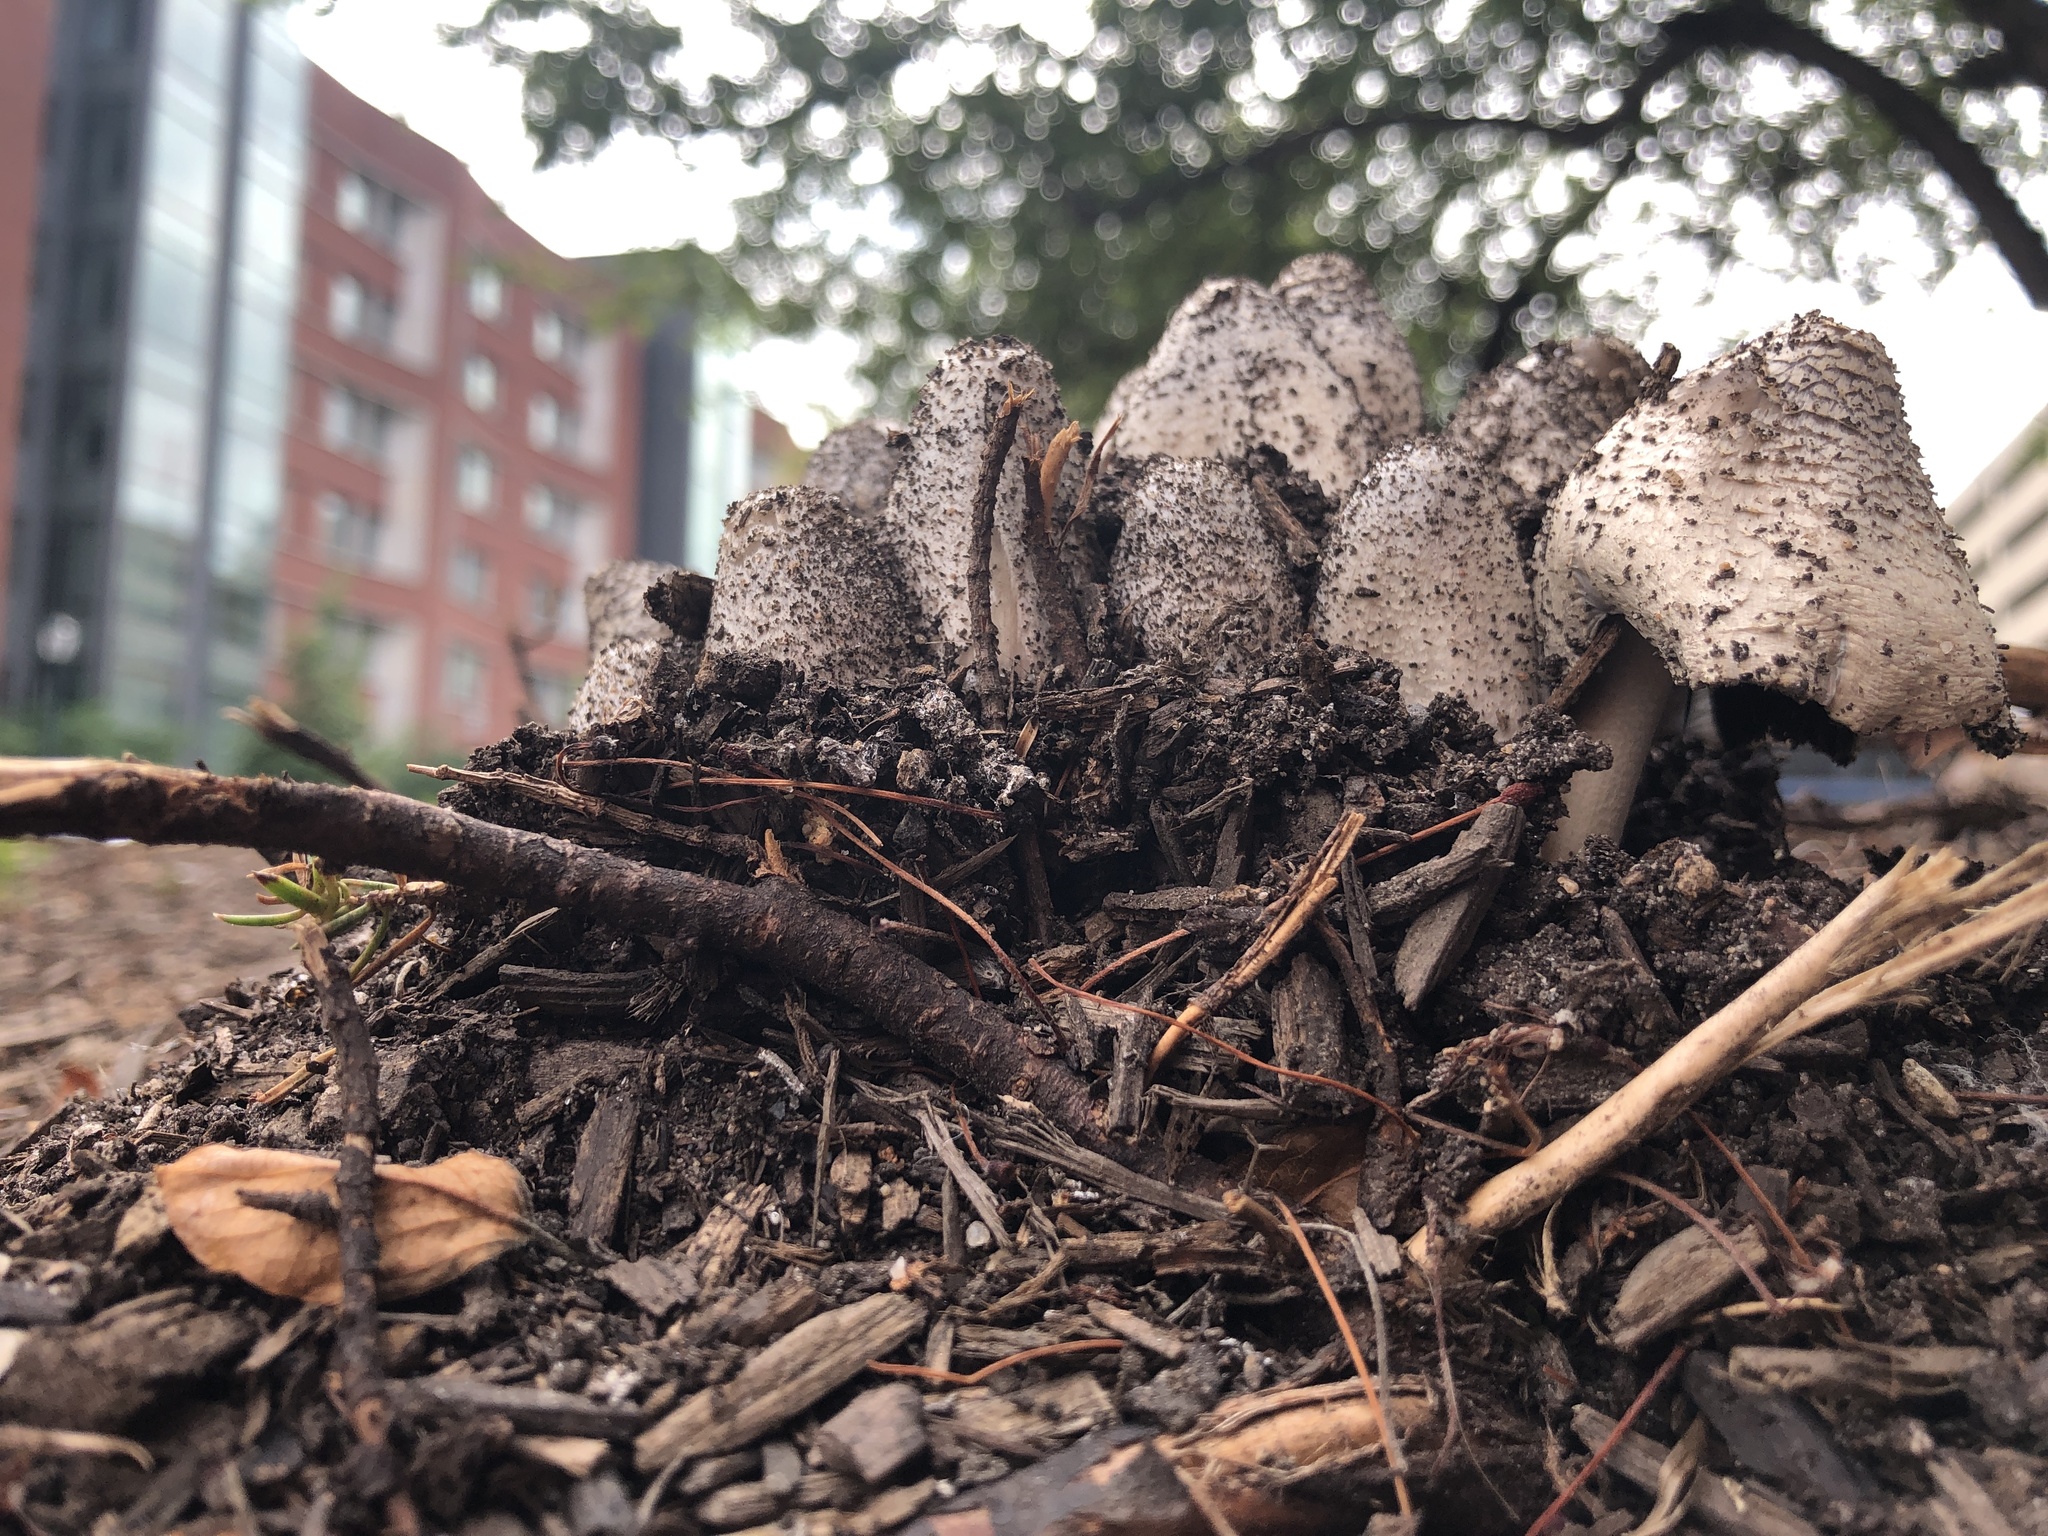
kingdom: Fungi
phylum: Basidiomycota
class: Agaricomycetes
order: Agaricales
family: Psathyrellaceae
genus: Coprinopsis
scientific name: Coprinopsis variegata
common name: Scaly ink cap
